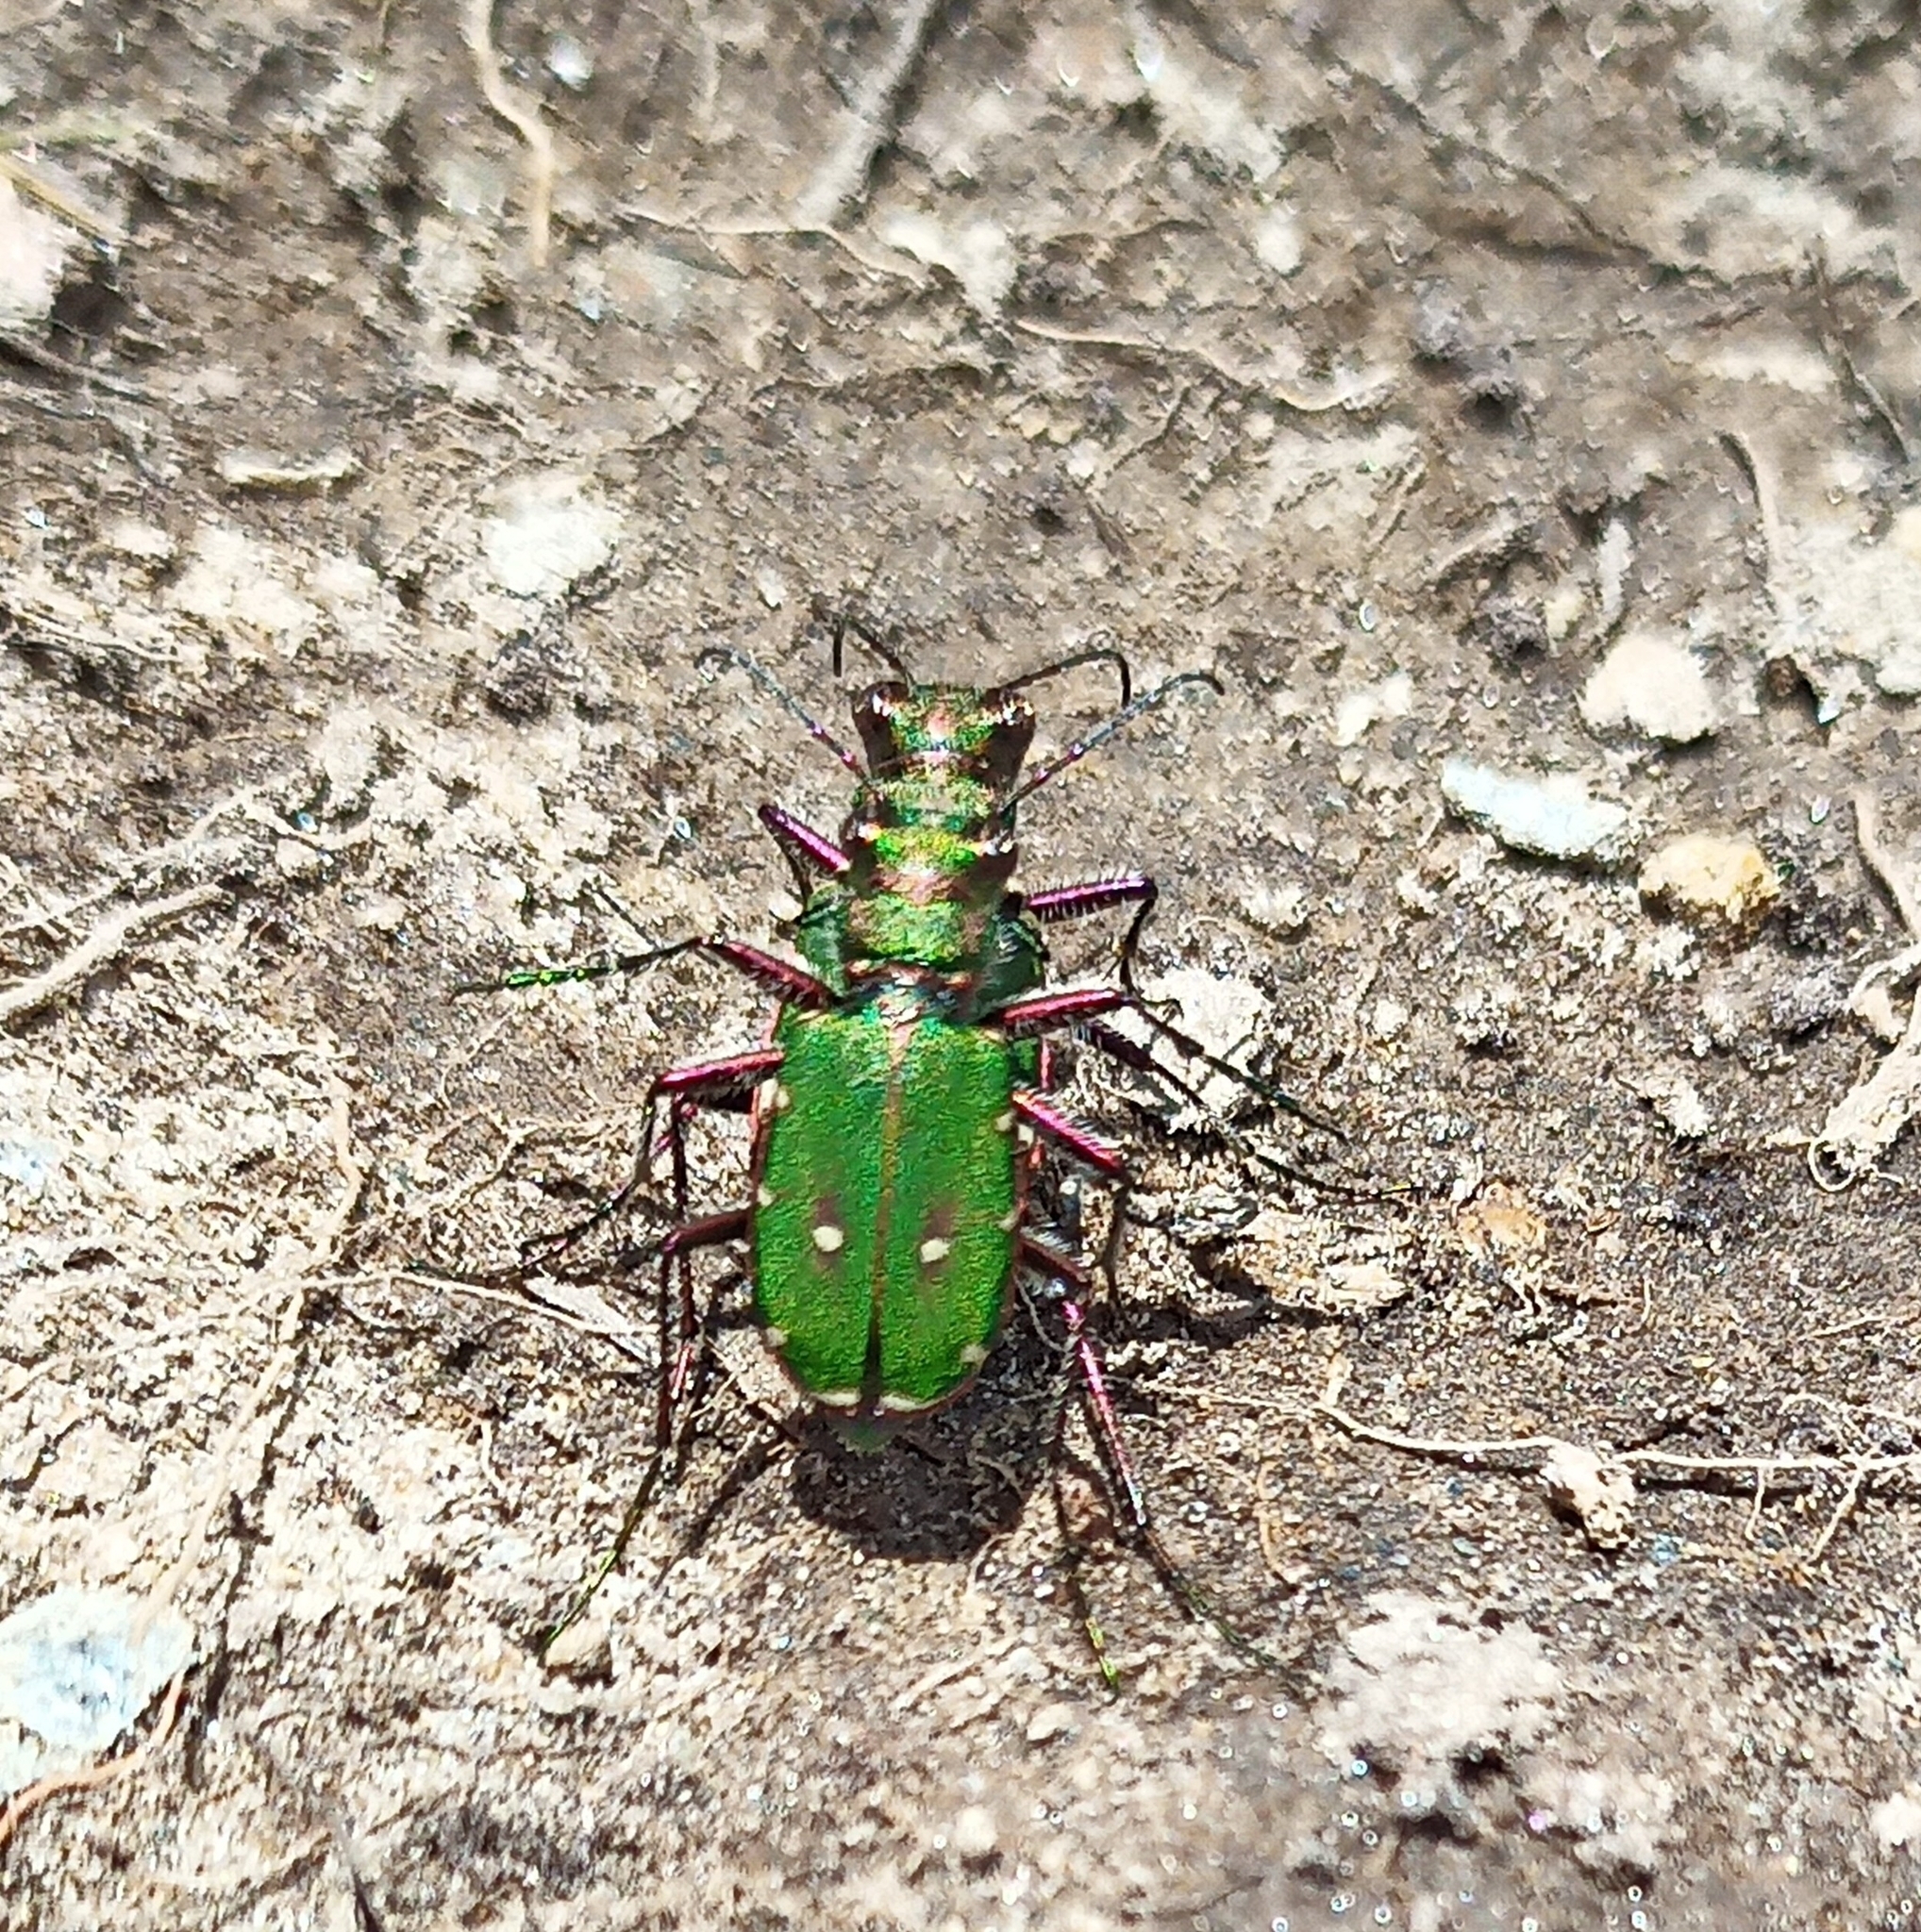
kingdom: Animalia
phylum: Arthropoda
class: Insecta
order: Coleoptera
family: Carabidae
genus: Cicindela
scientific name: Cicindela campestris
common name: Common tiger beetle
